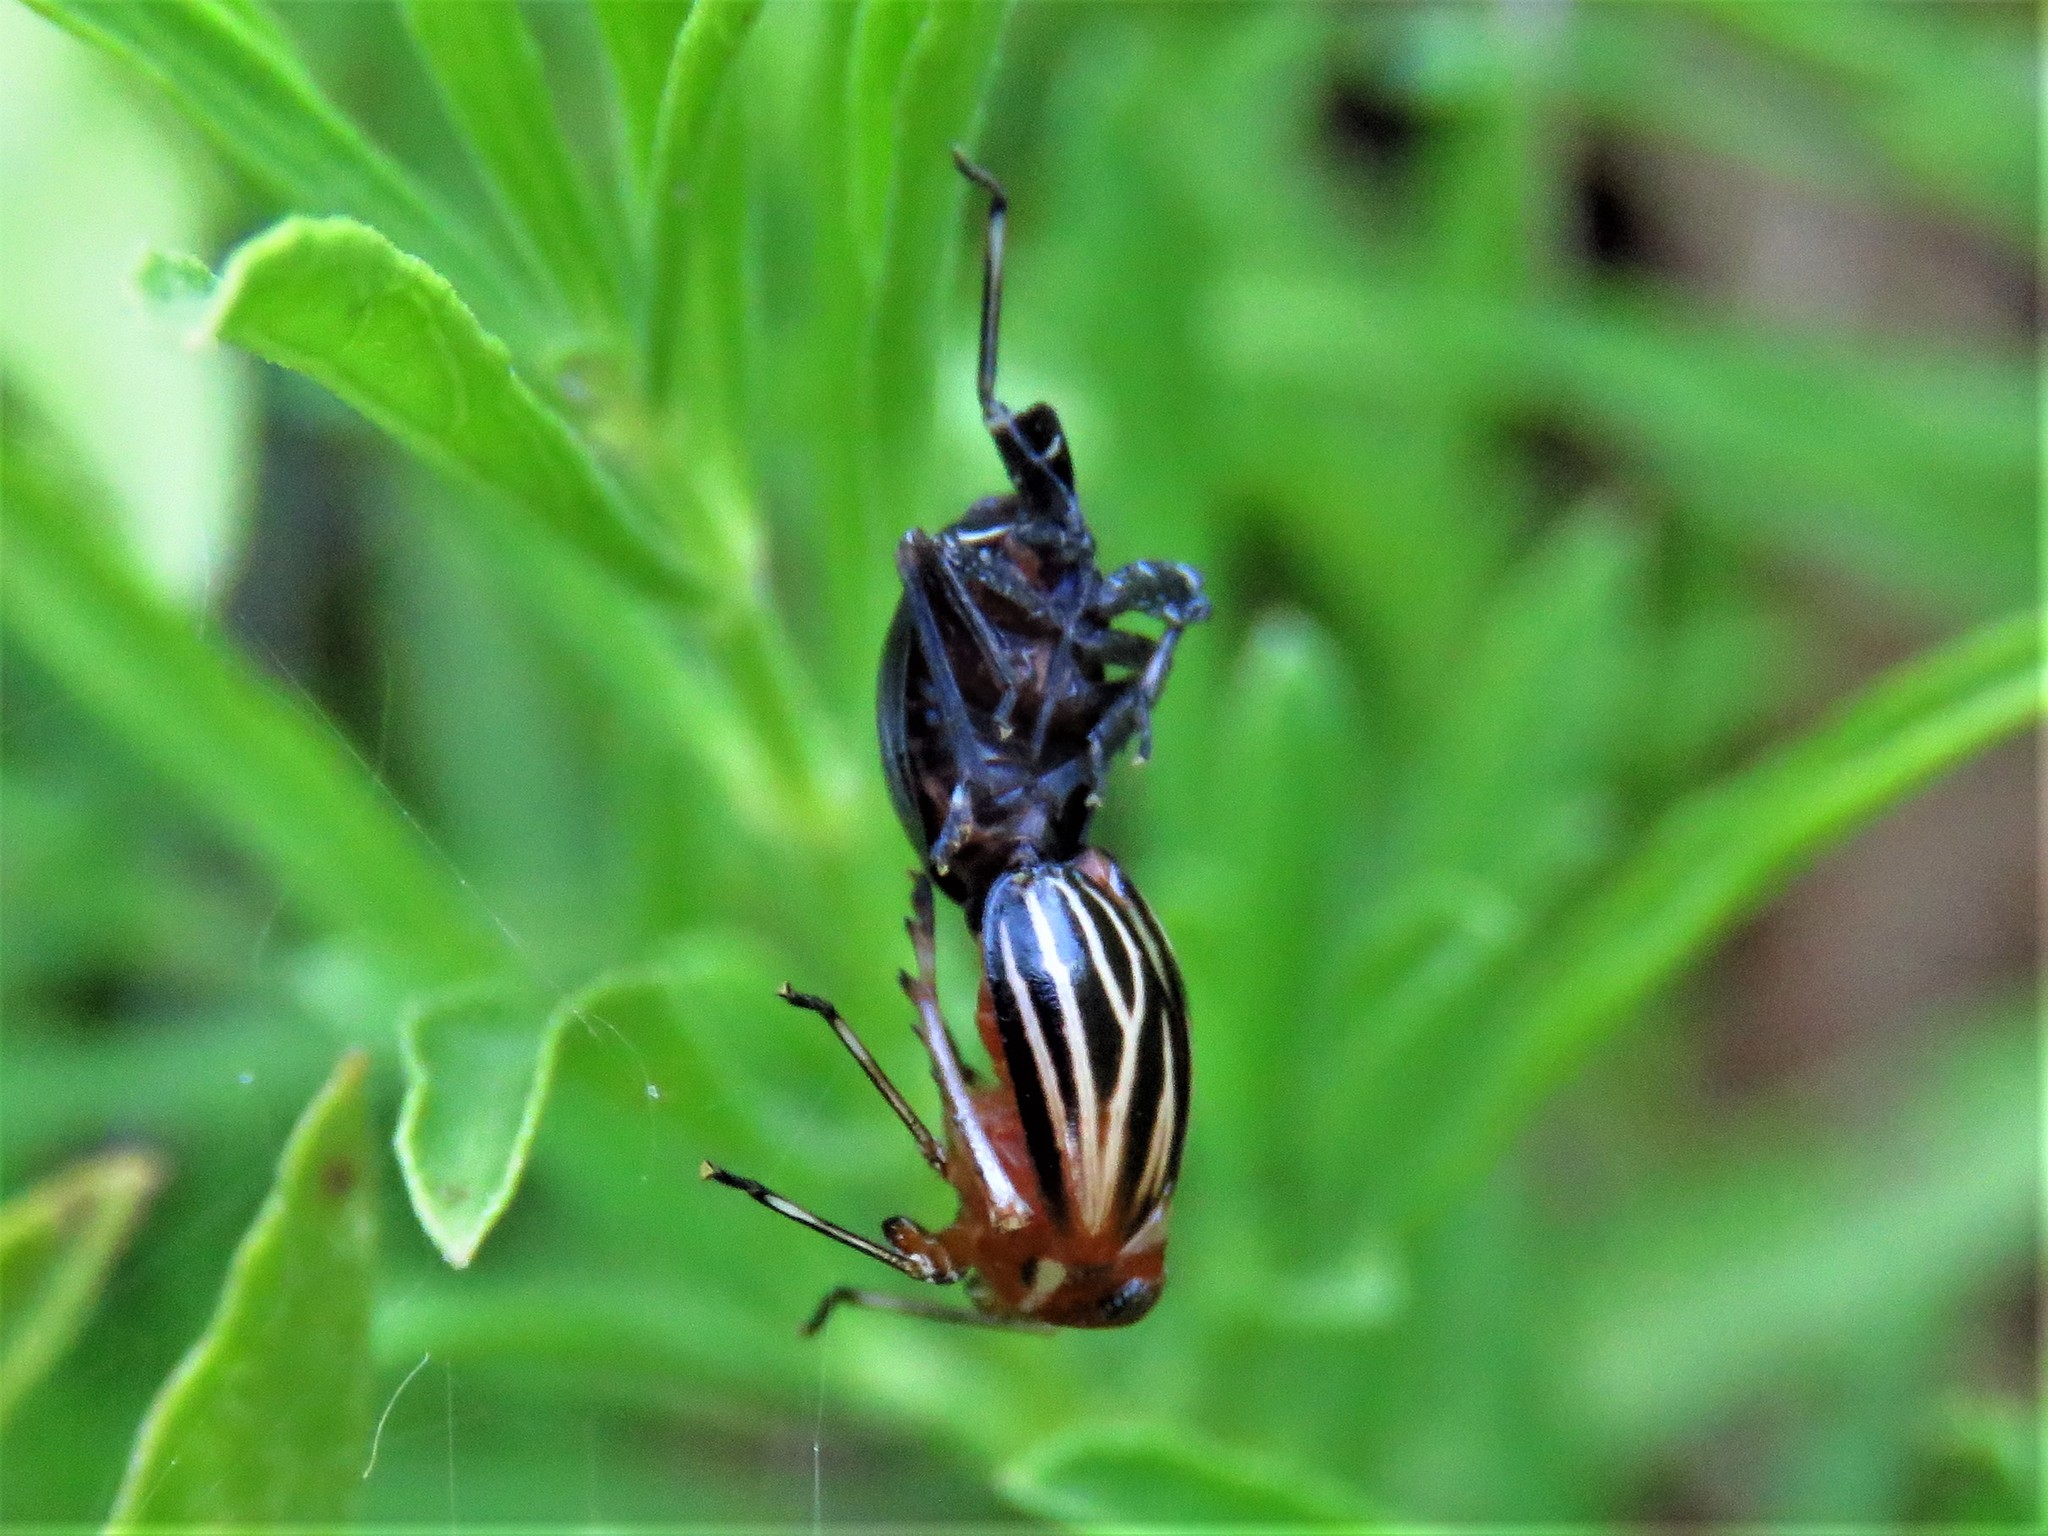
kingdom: Animalia
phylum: Arthropoda
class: Insecta
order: Hemiptera
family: Achilidae
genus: Isodaemon
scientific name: Isodaemon orontes
